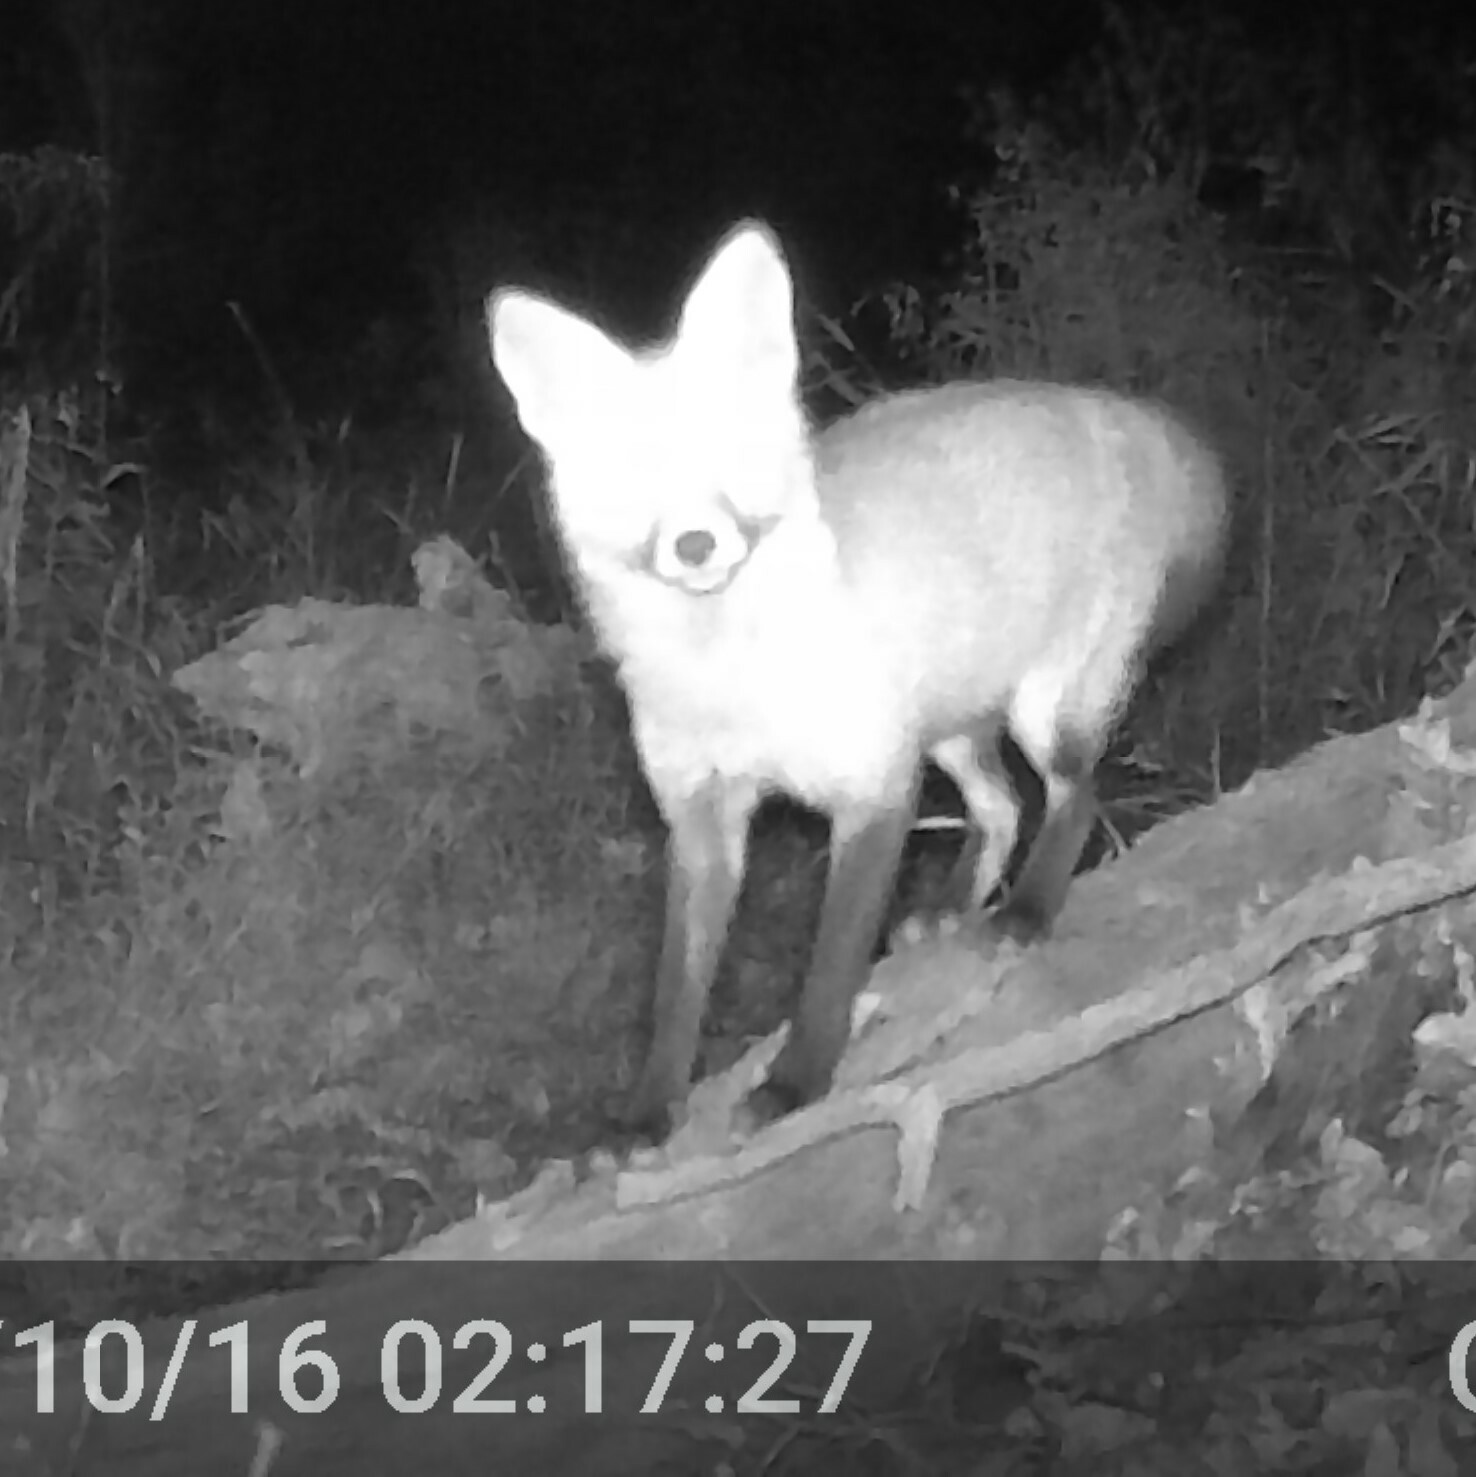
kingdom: Animalia
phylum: Chordata
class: Mammalia
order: Carnivora
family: Canidae
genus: Vulpes
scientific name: Vulpes vulpes
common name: Red fox
